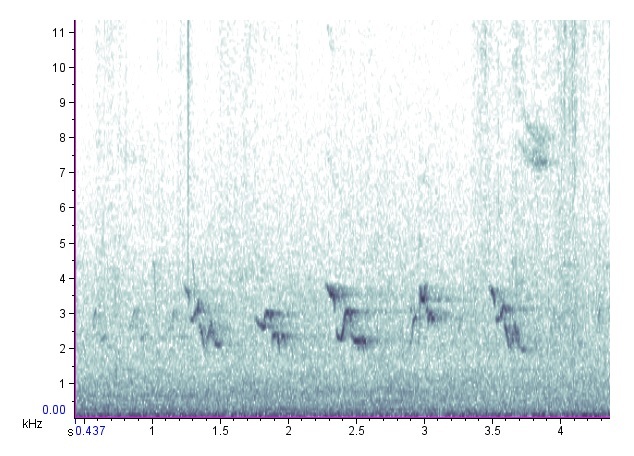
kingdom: Animalia
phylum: Chordata
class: Aves
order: Passeriformes
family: Turdidae
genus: Turdus
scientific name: Turdus migratorius
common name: American robin
